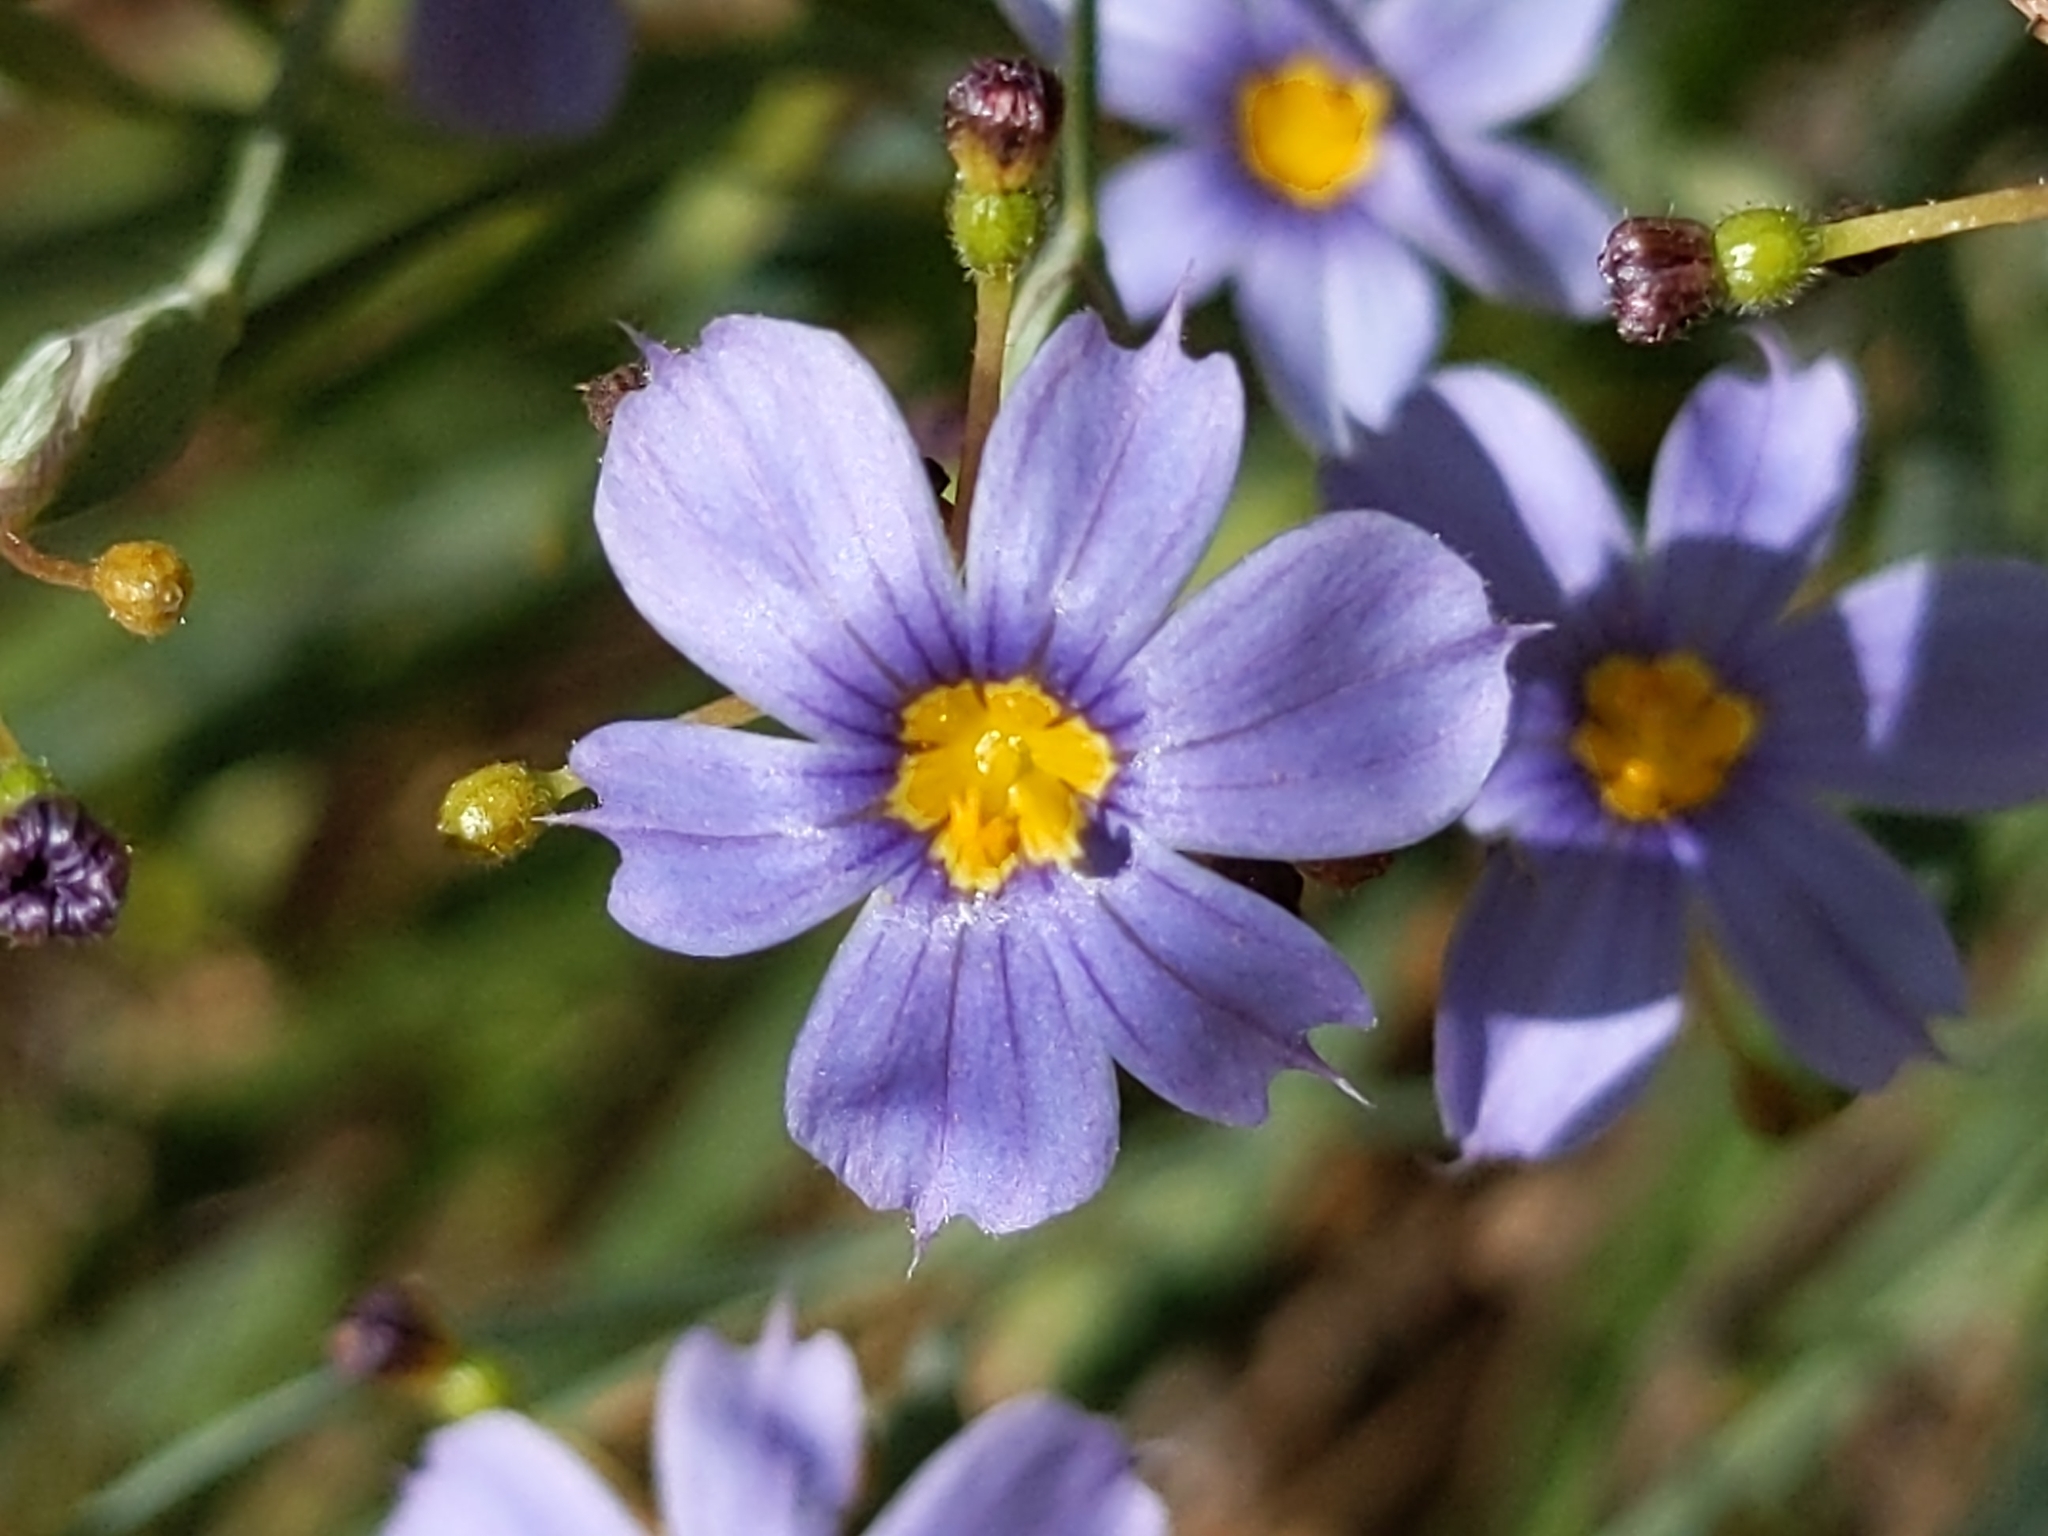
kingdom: Plantae
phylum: Tracheophyta
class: Liliopsida
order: Asparagales
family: Iridaceae
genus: Sisyrinchium
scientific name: Sisyrinchium bellum
